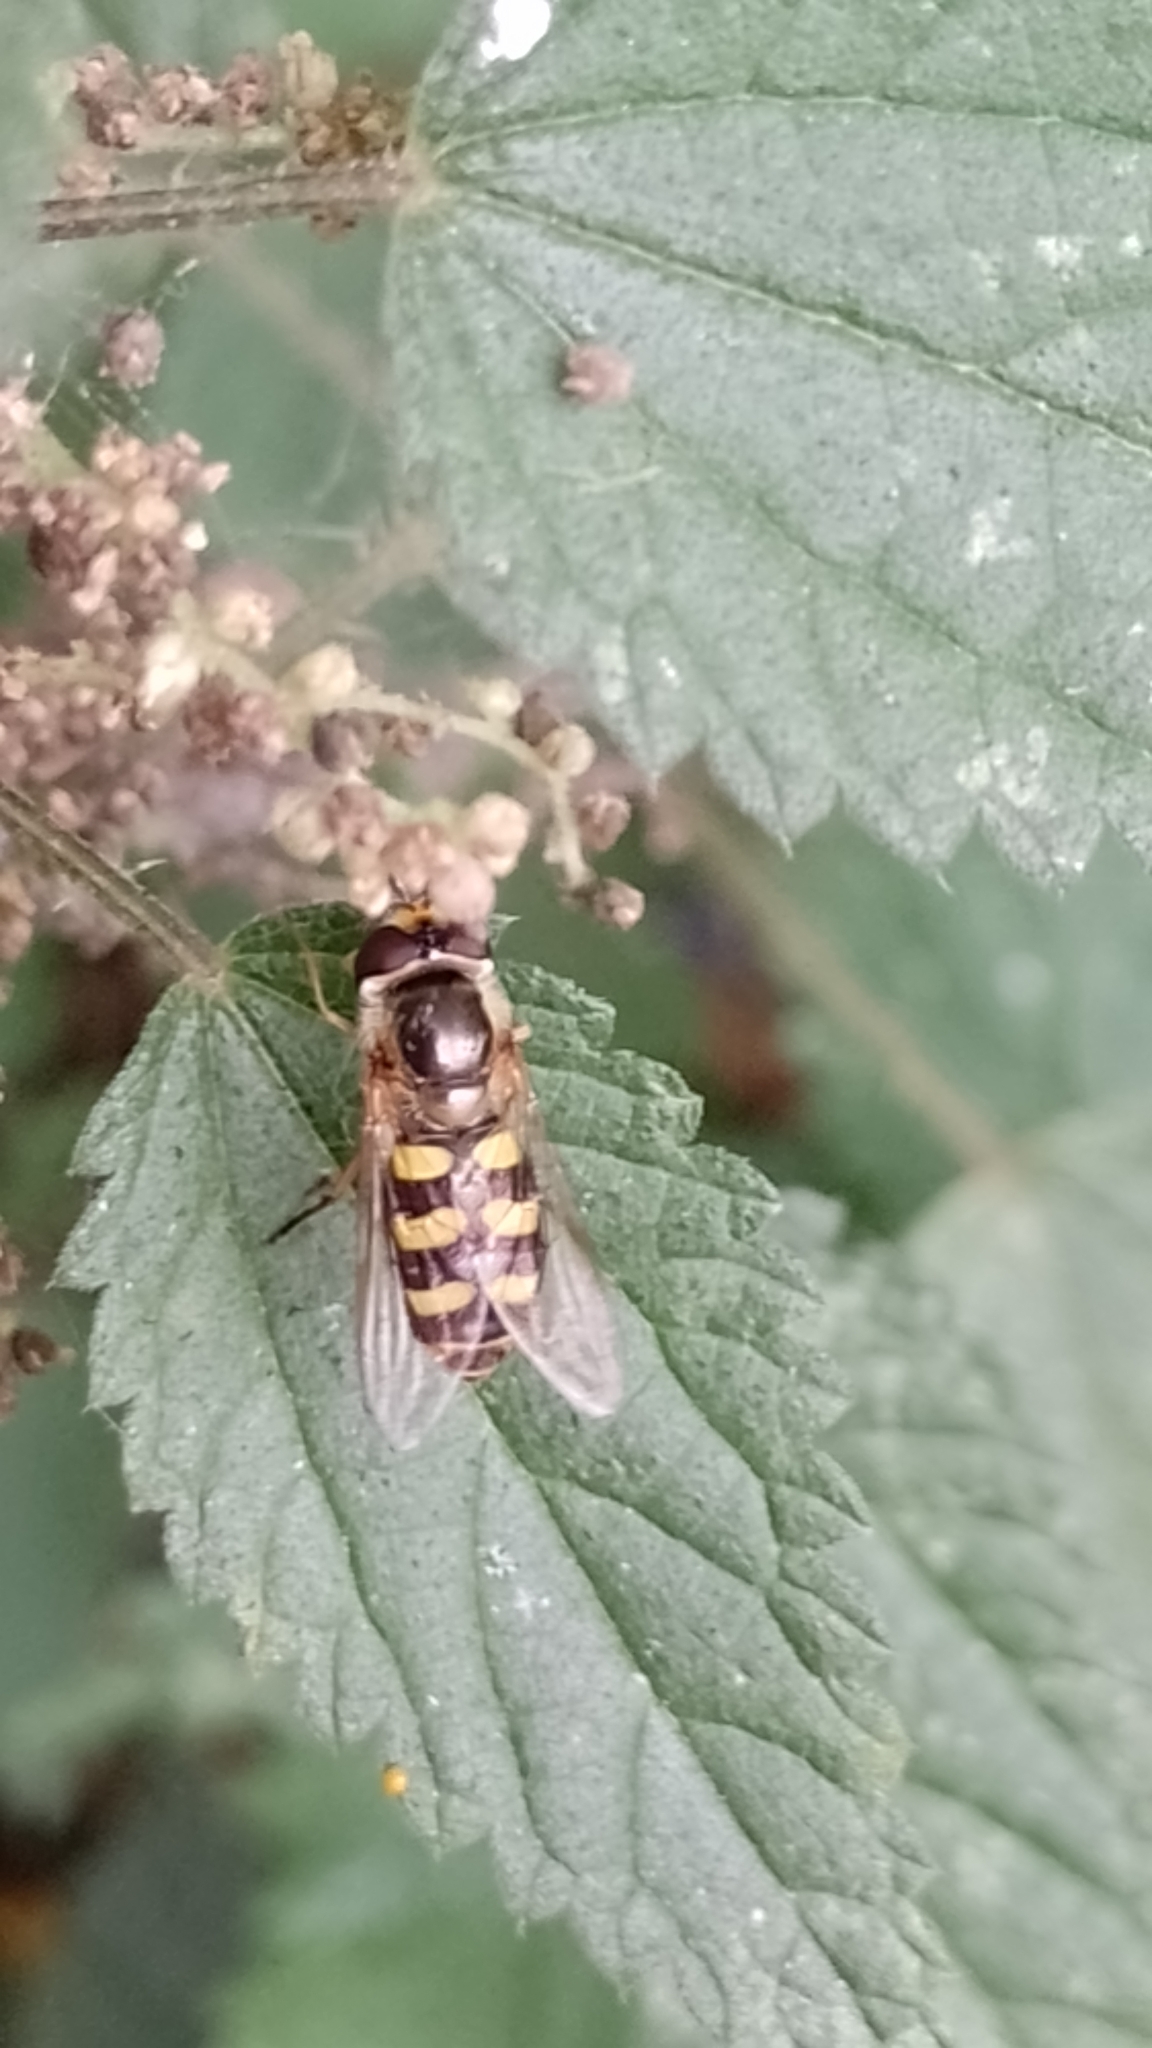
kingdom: Animalia
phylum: Arthropoda
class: Insecta
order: Diptera
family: Syrphidae
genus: Eupeodes
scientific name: Eupeodes
